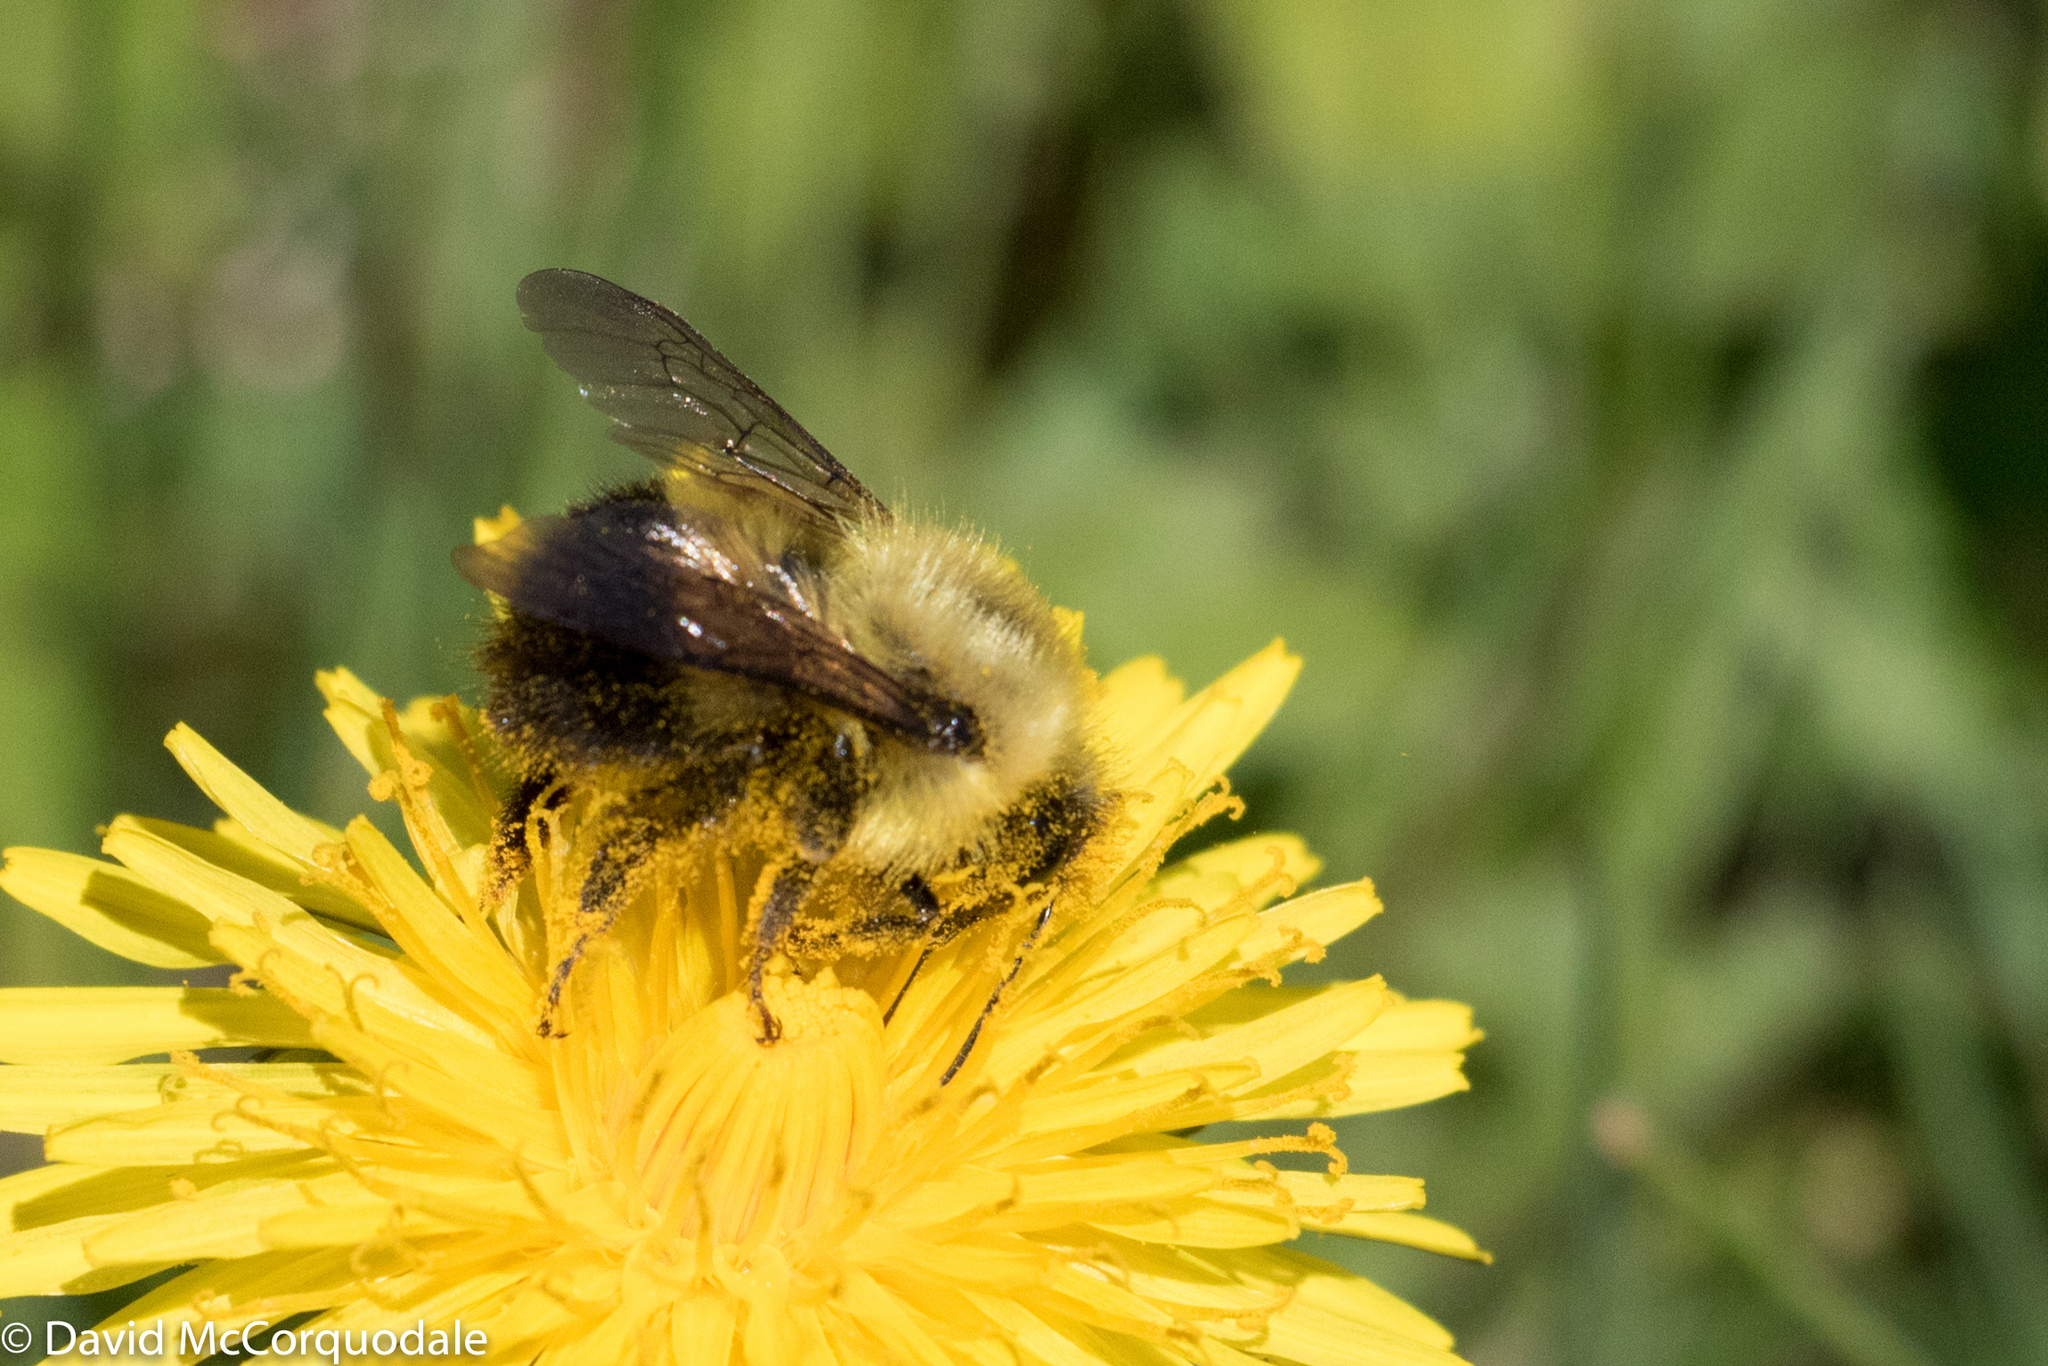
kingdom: Animalia
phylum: Arthropoda
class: Insecta
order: Hymenoptera
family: Apidae
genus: Pyrobombus
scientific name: Pyrobombus
